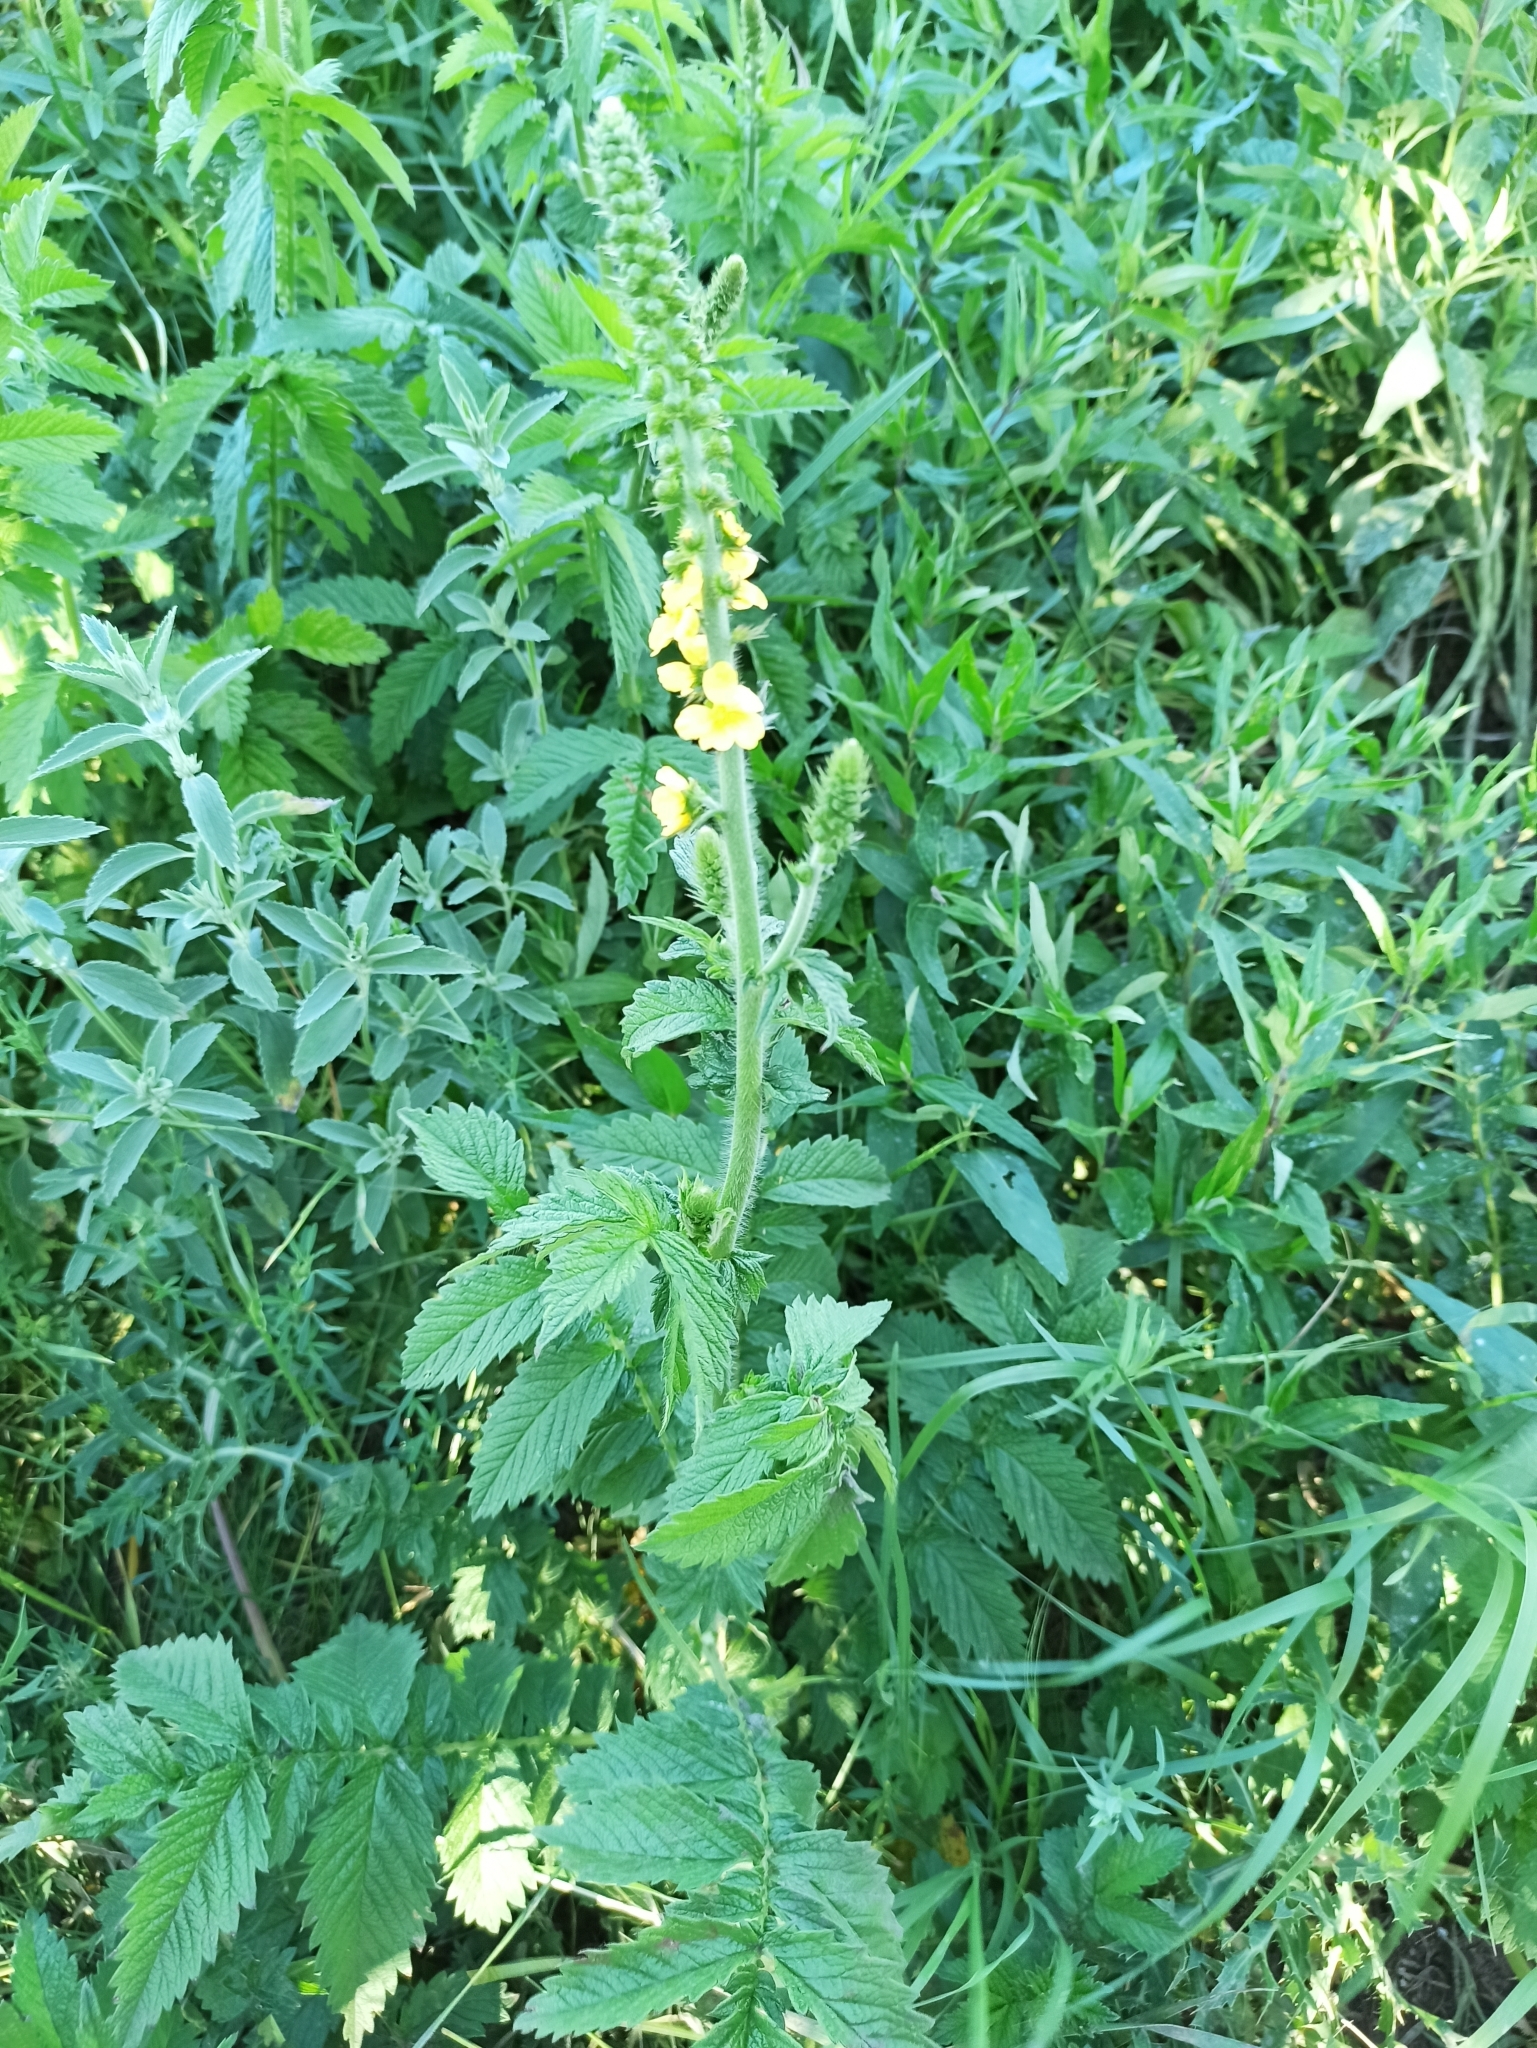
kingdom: Plantae
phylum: Tracheophyta
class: Magnoliopsida
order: Rosales
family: Rosaceae
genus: Agrimonia
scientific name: Agrimonia eupatoria
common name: Agrimony
